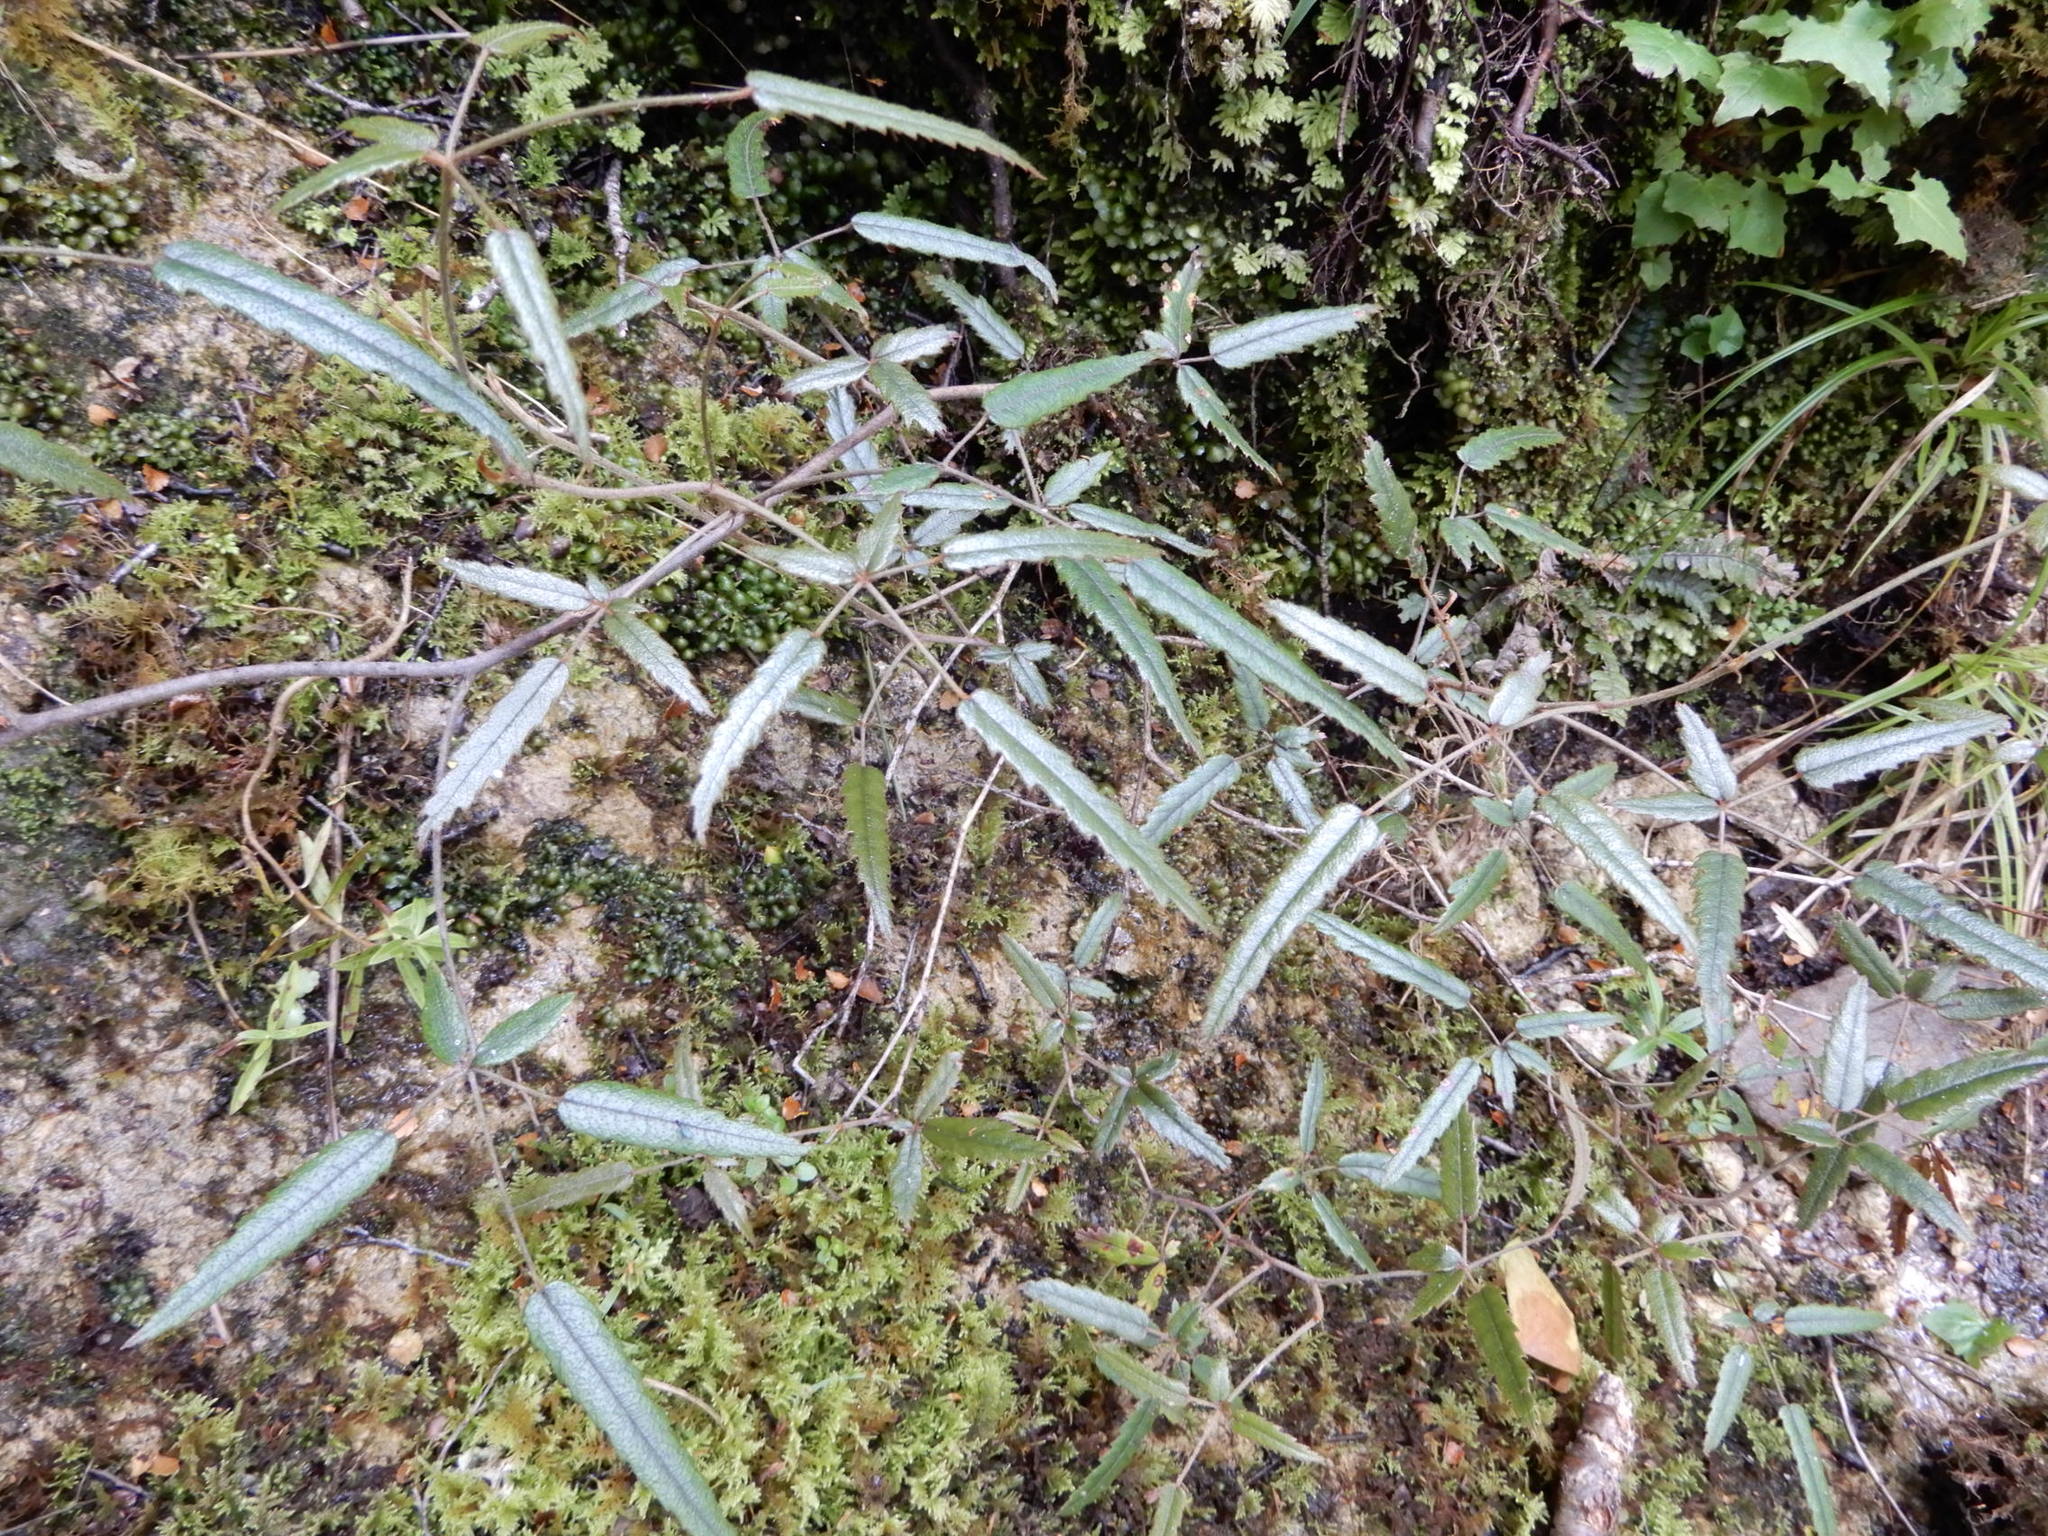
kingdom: Plantae
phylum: Tracheophyta
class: Magnoliopsida
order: Rosales
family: Rosaceae
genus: Rubus
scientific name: Rubus schmidelioides
